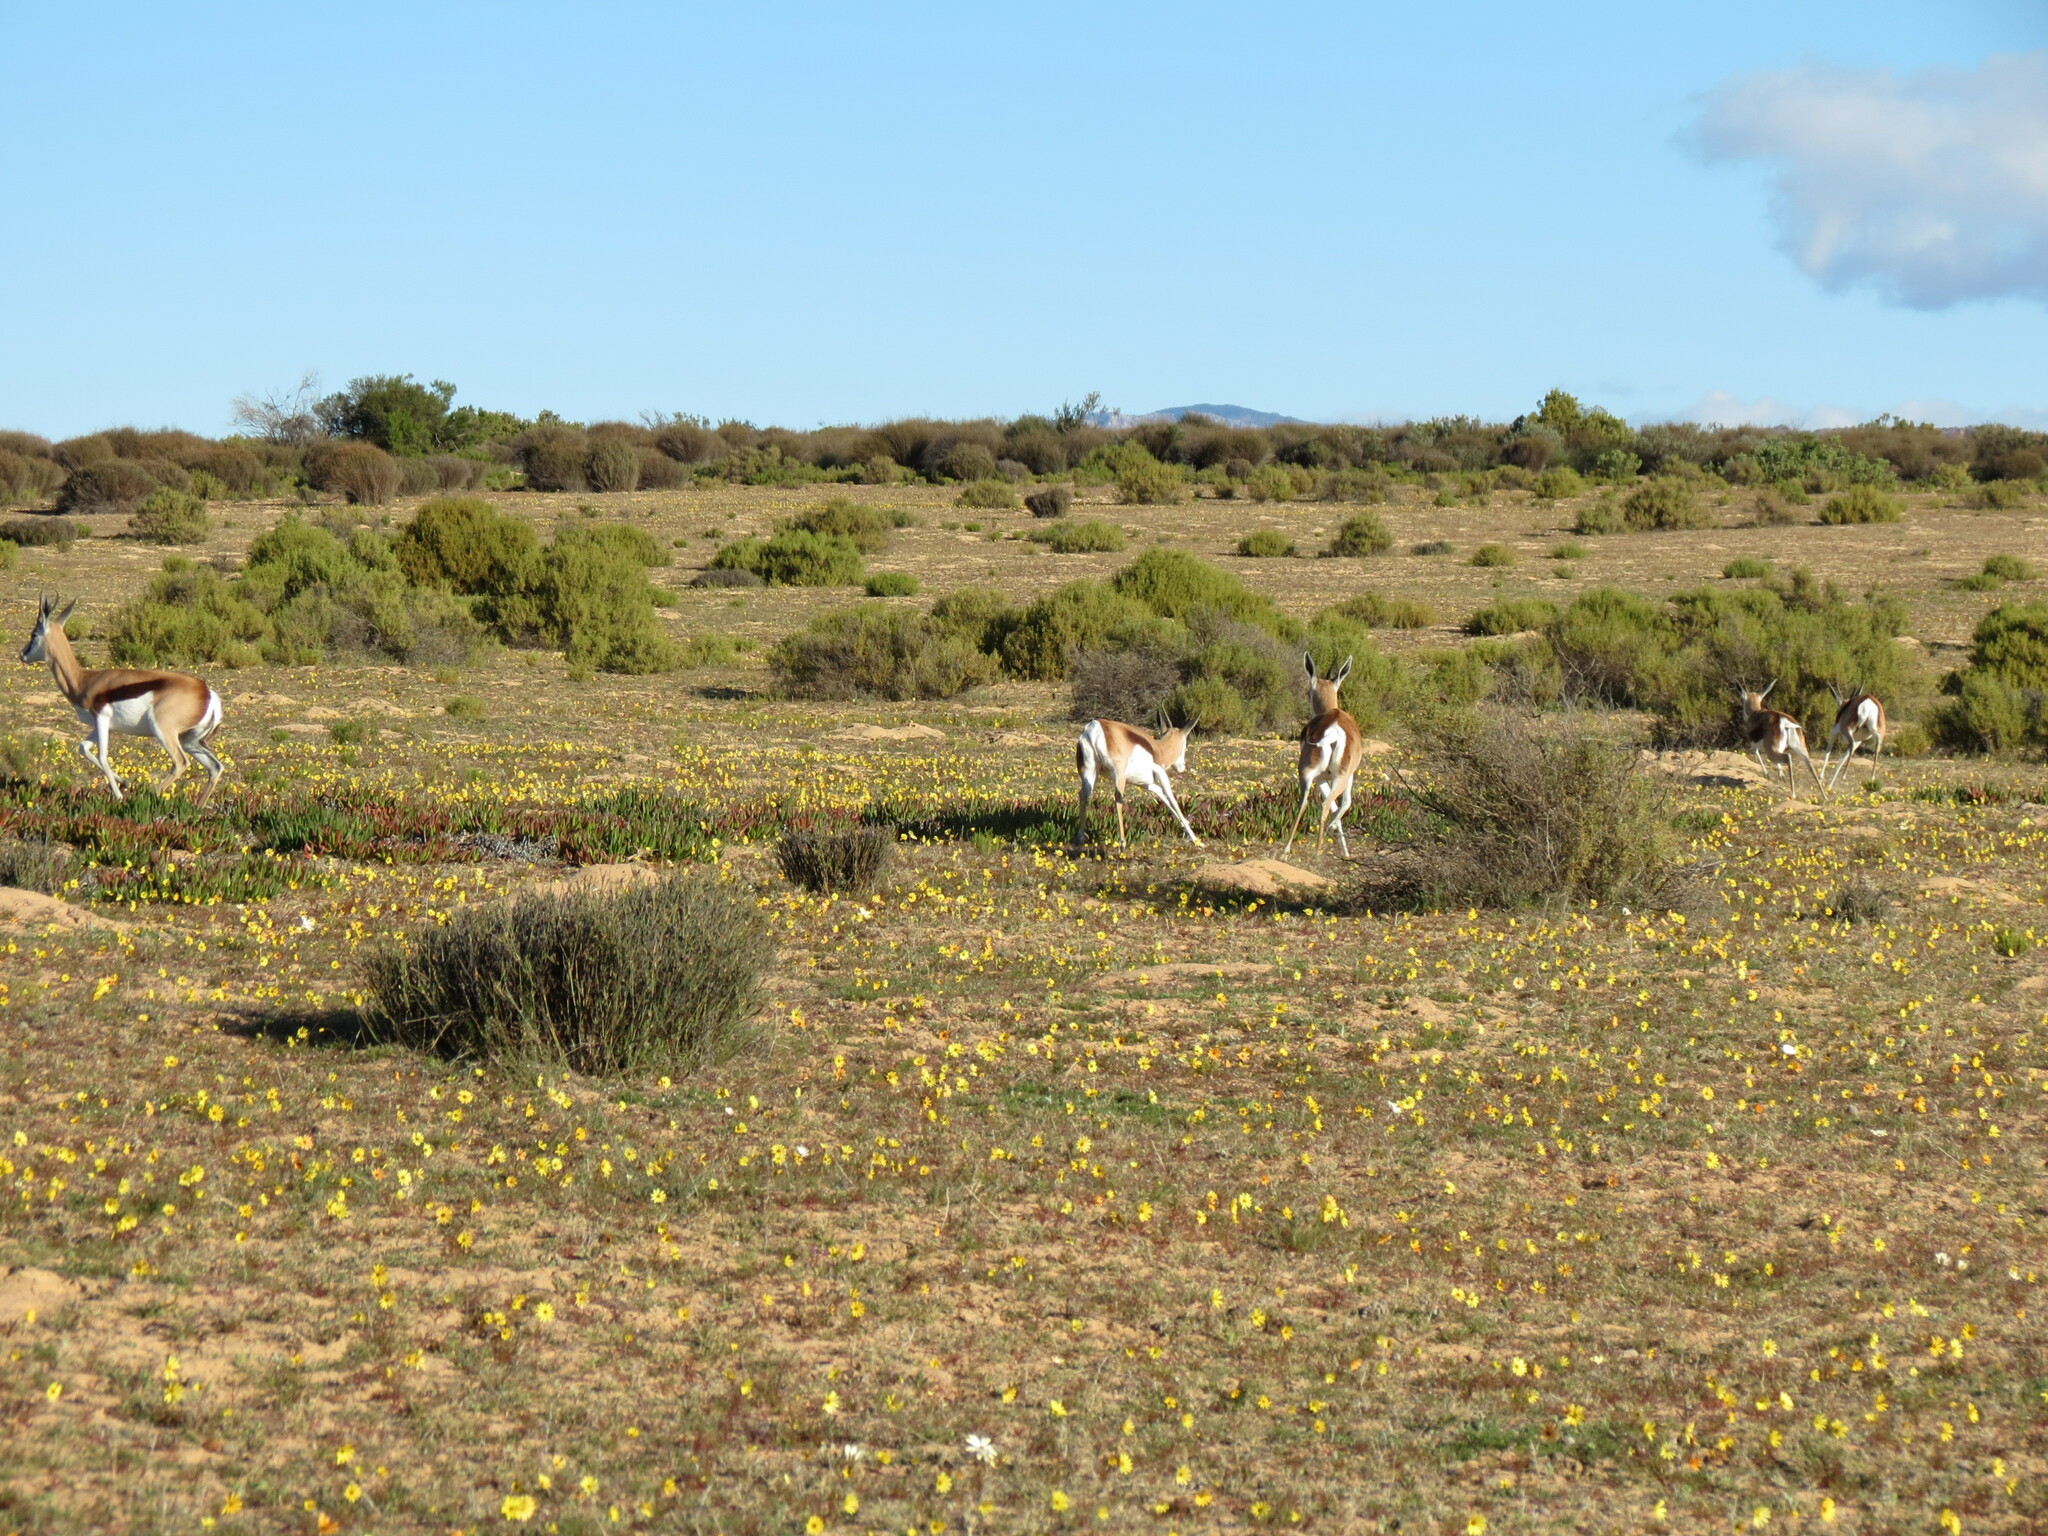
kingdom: Plantae
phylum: Tracheophyta
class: Magnoliopsida
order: Asterales
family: Asteraceae
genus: Dimorphotheca
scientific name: Dimorphotheca sinuata
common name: Glandular cape marigold
